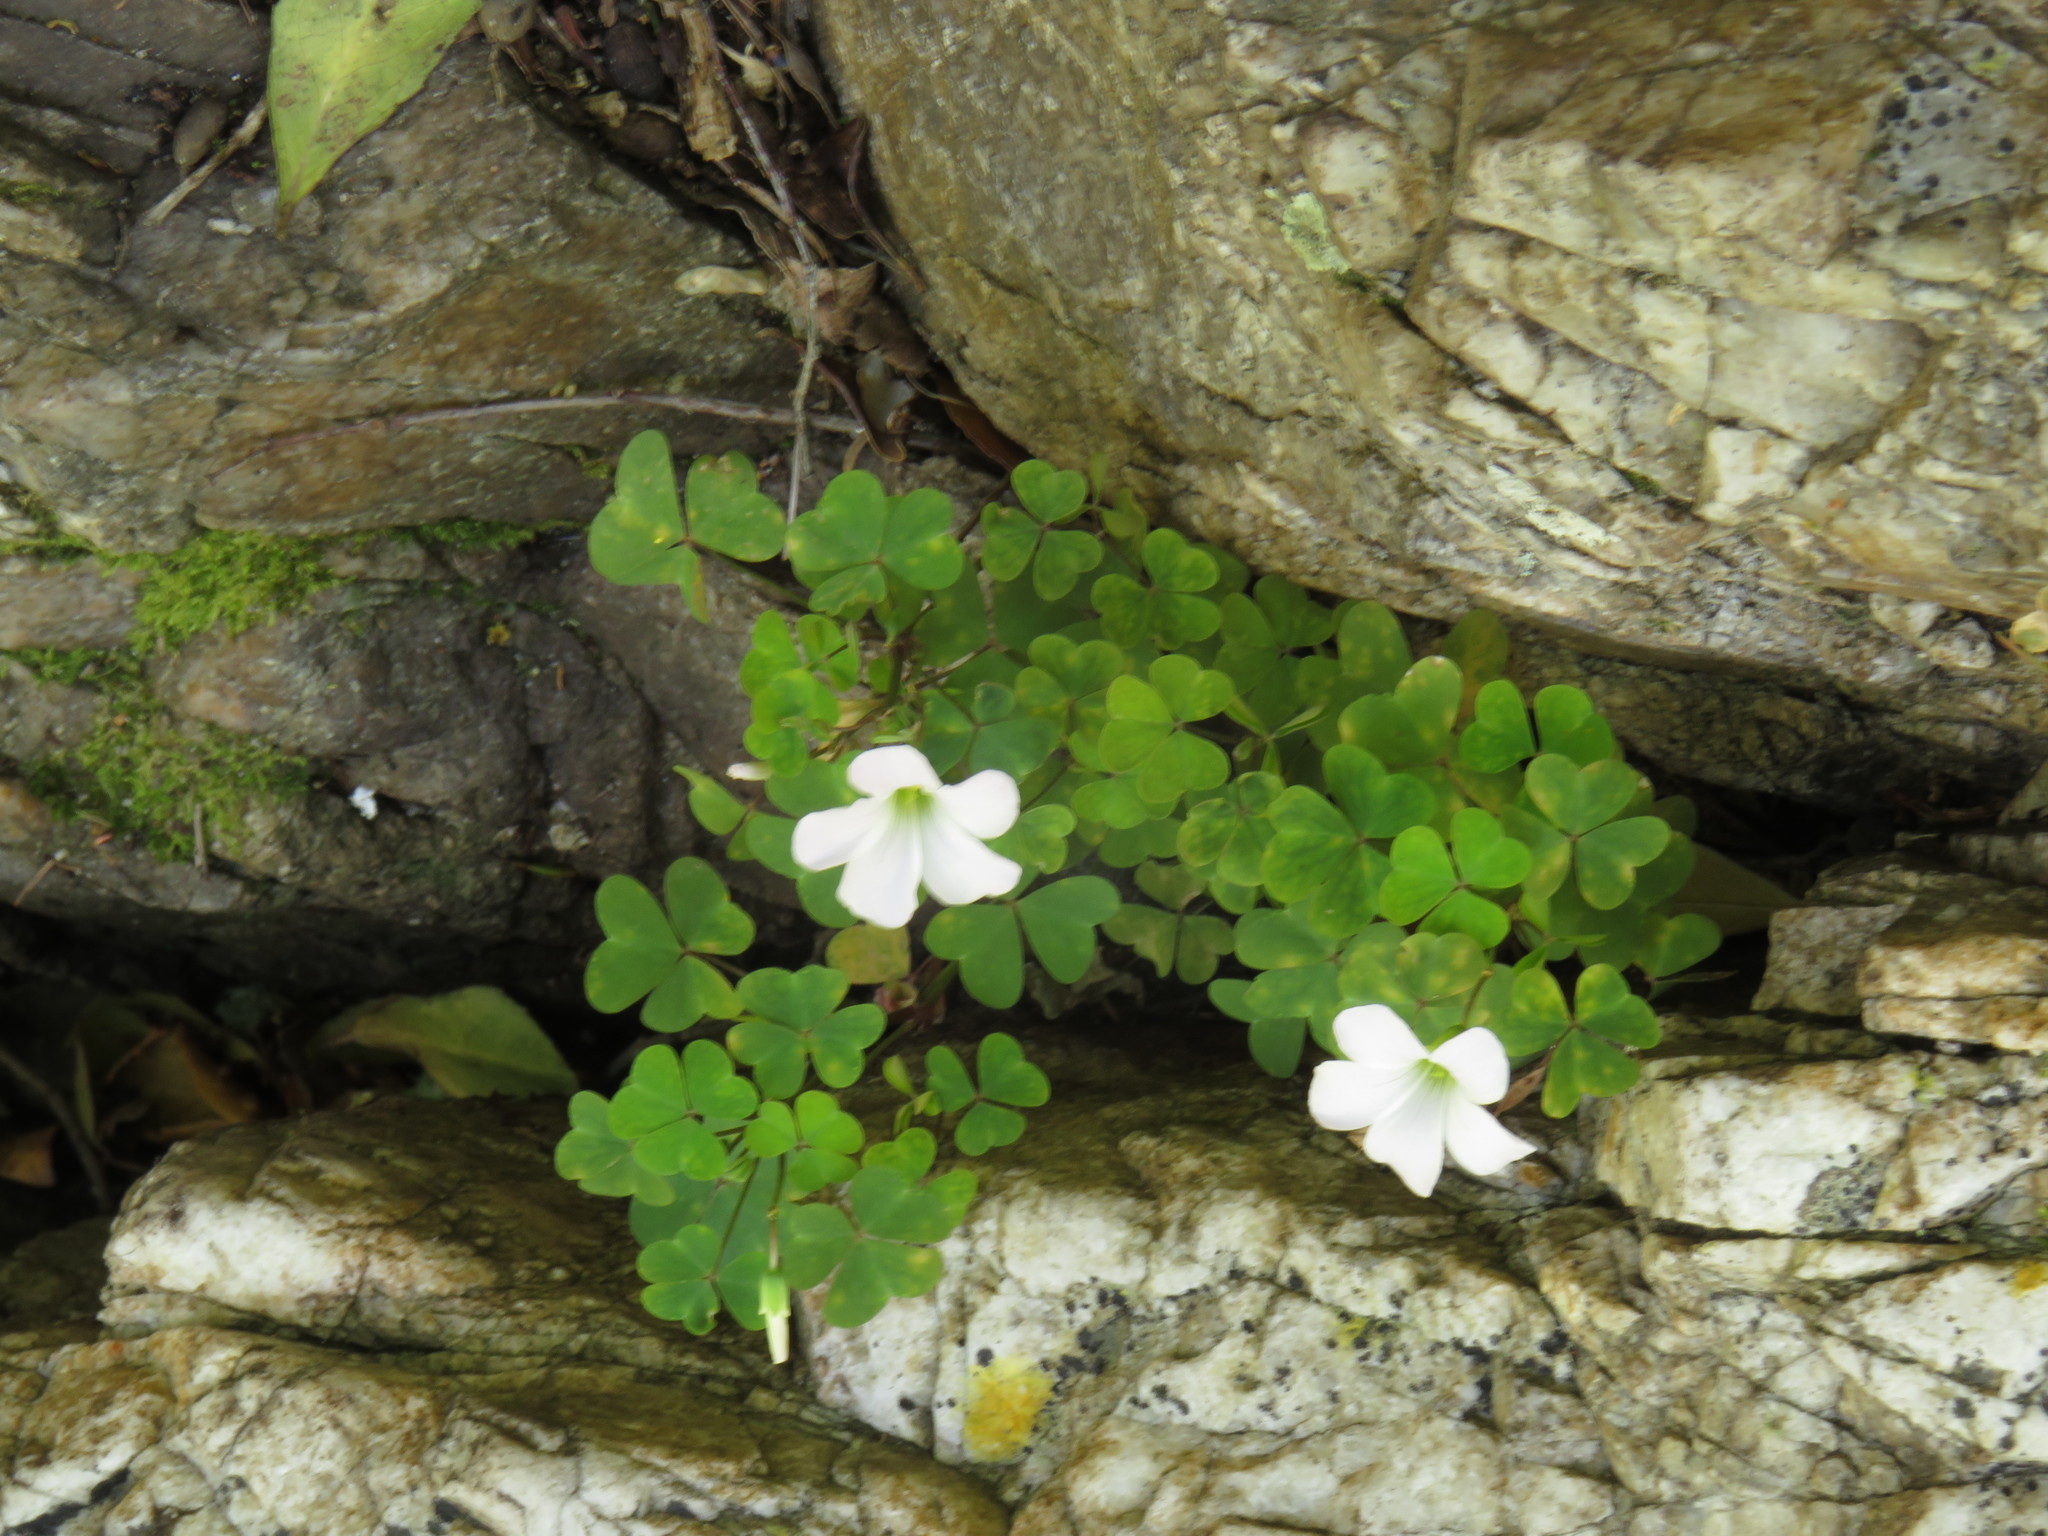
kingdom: Plantae
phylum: Tracheophyta
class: Magnoliopsida
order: Oxalidales
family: Oxalidaceae
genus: Oxalis
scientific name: Oxalis incarnata
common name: Pale pink-sorrel
